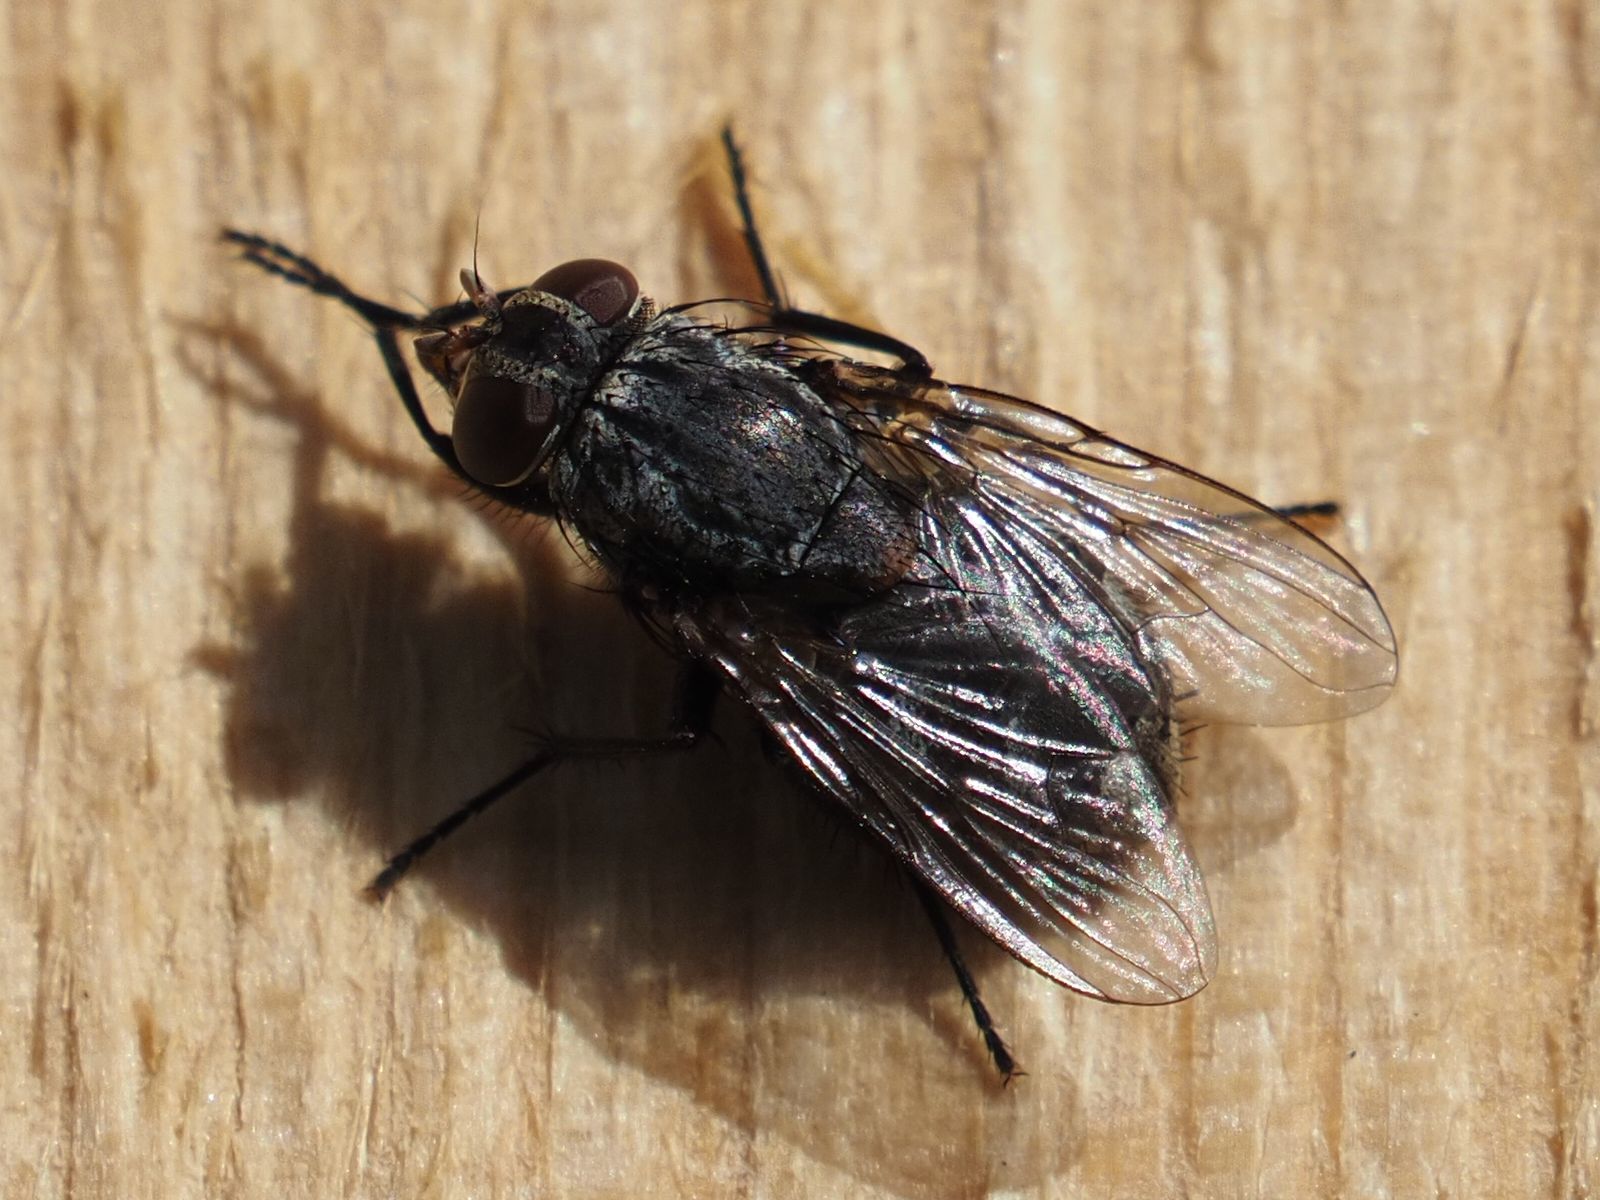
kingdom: Animalia
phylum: Arthropoda
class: Insecta
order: Diptera
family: Muscidae
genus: Muscina
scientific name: Muscina prolapsa
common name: Muscoid fly
